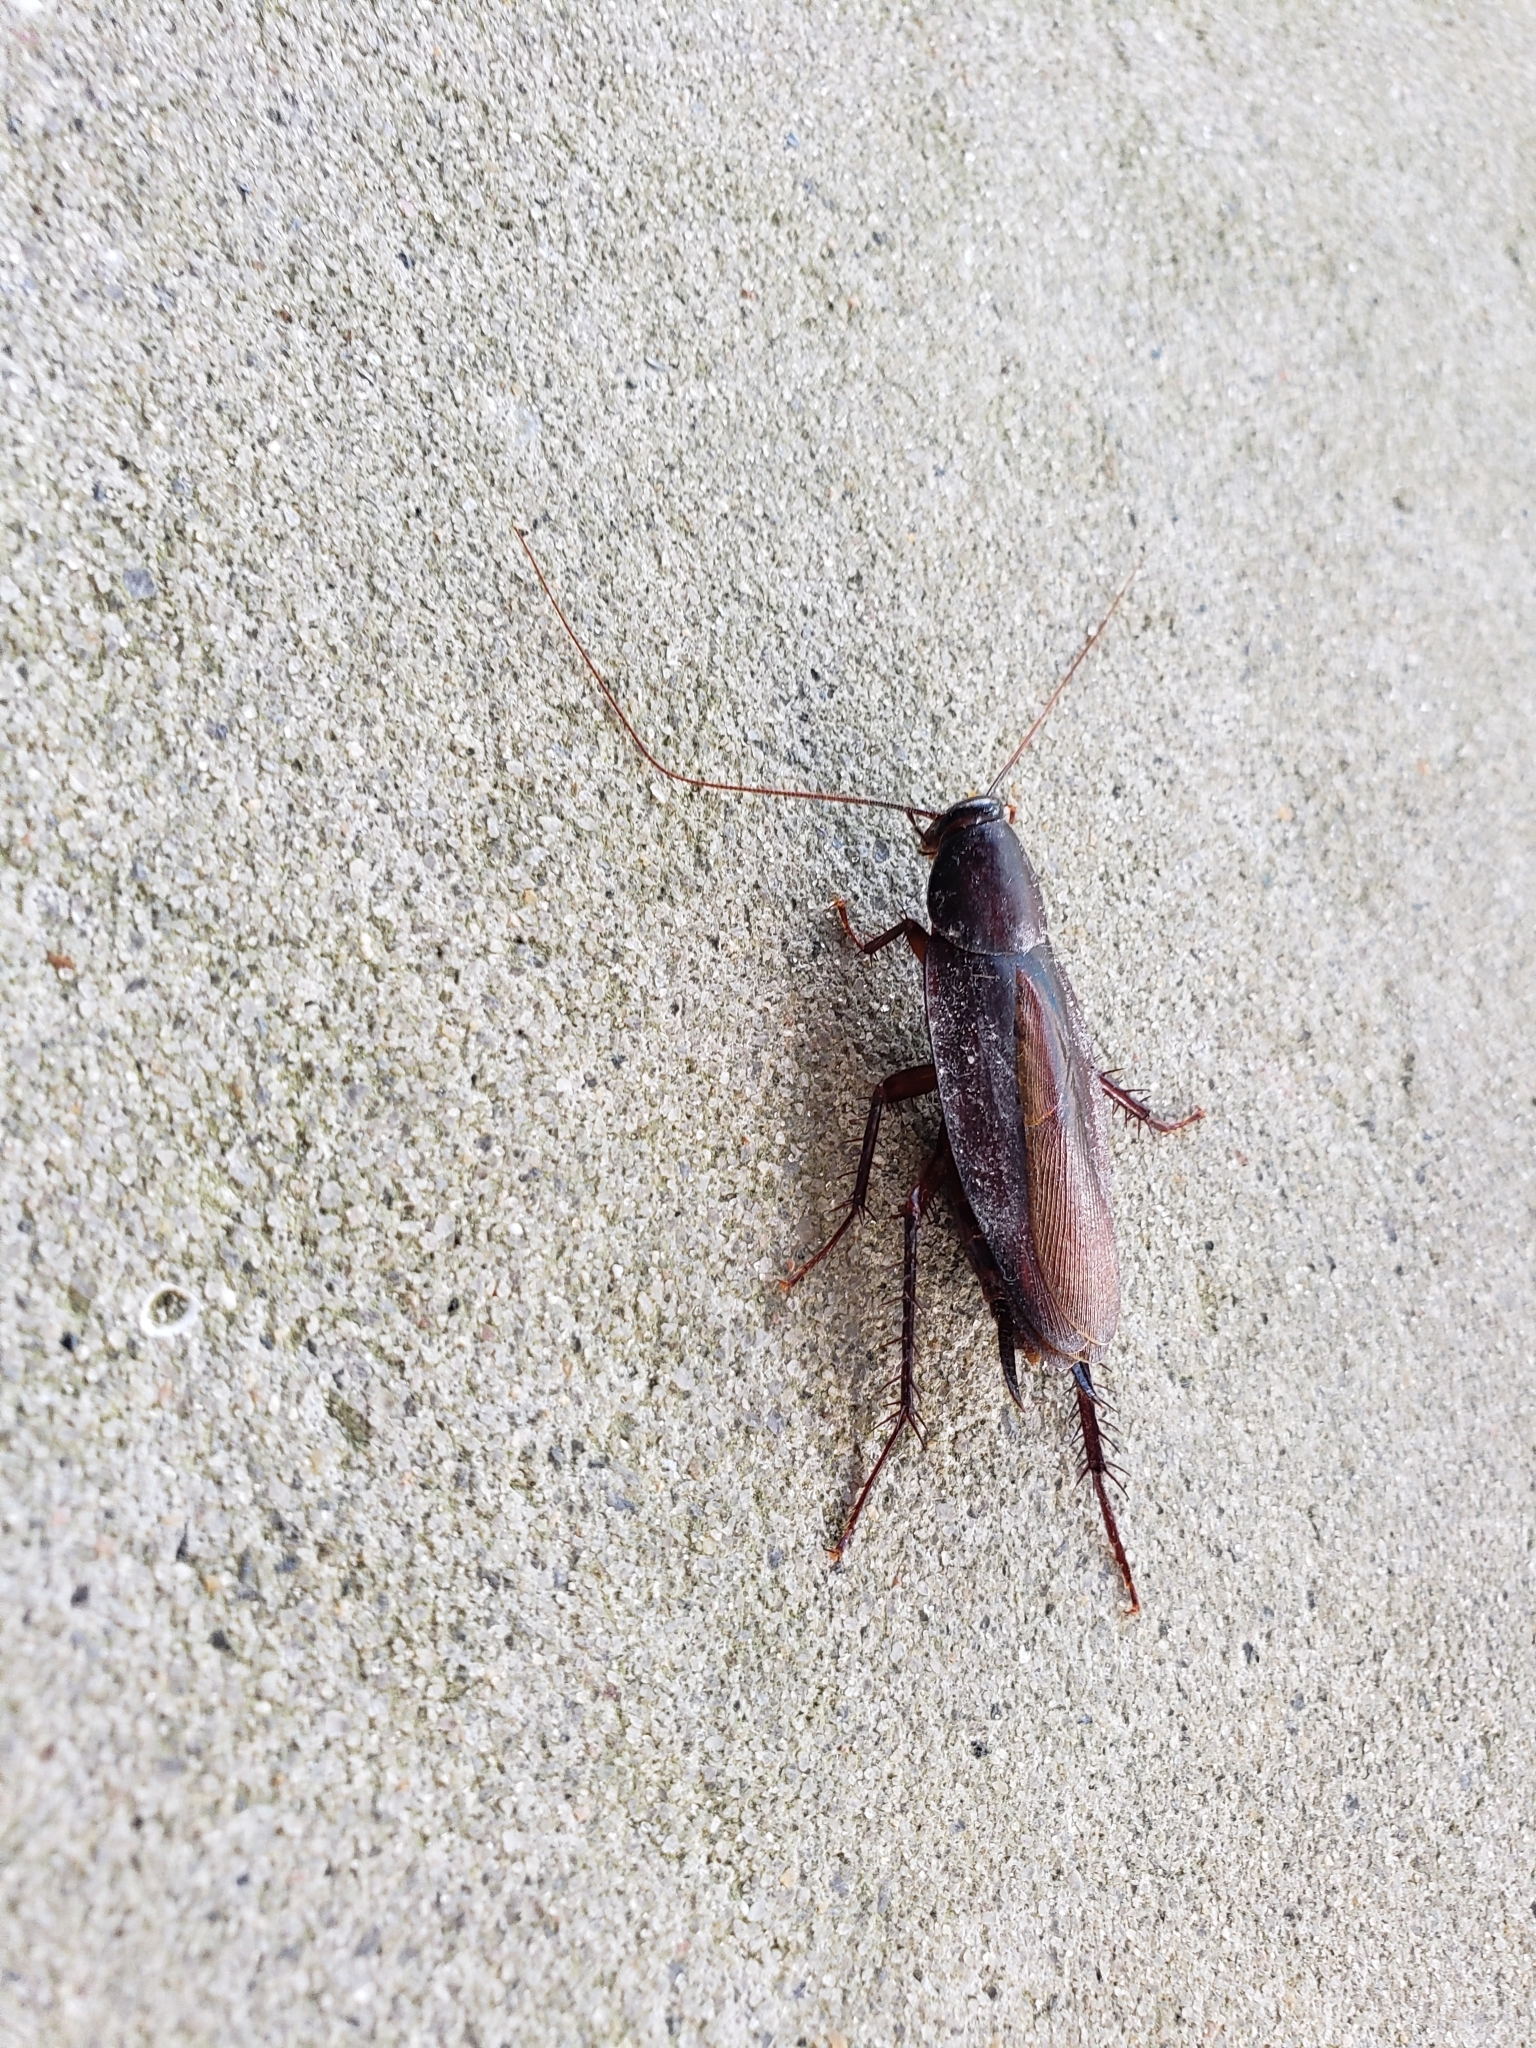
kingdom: Animalia
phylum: Arthropoda
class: Insecta
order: Blattodea
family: Blattidae
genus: Periplaneta
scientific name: Periplaneta fuliginosa
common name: Smokeybrown cockroad
